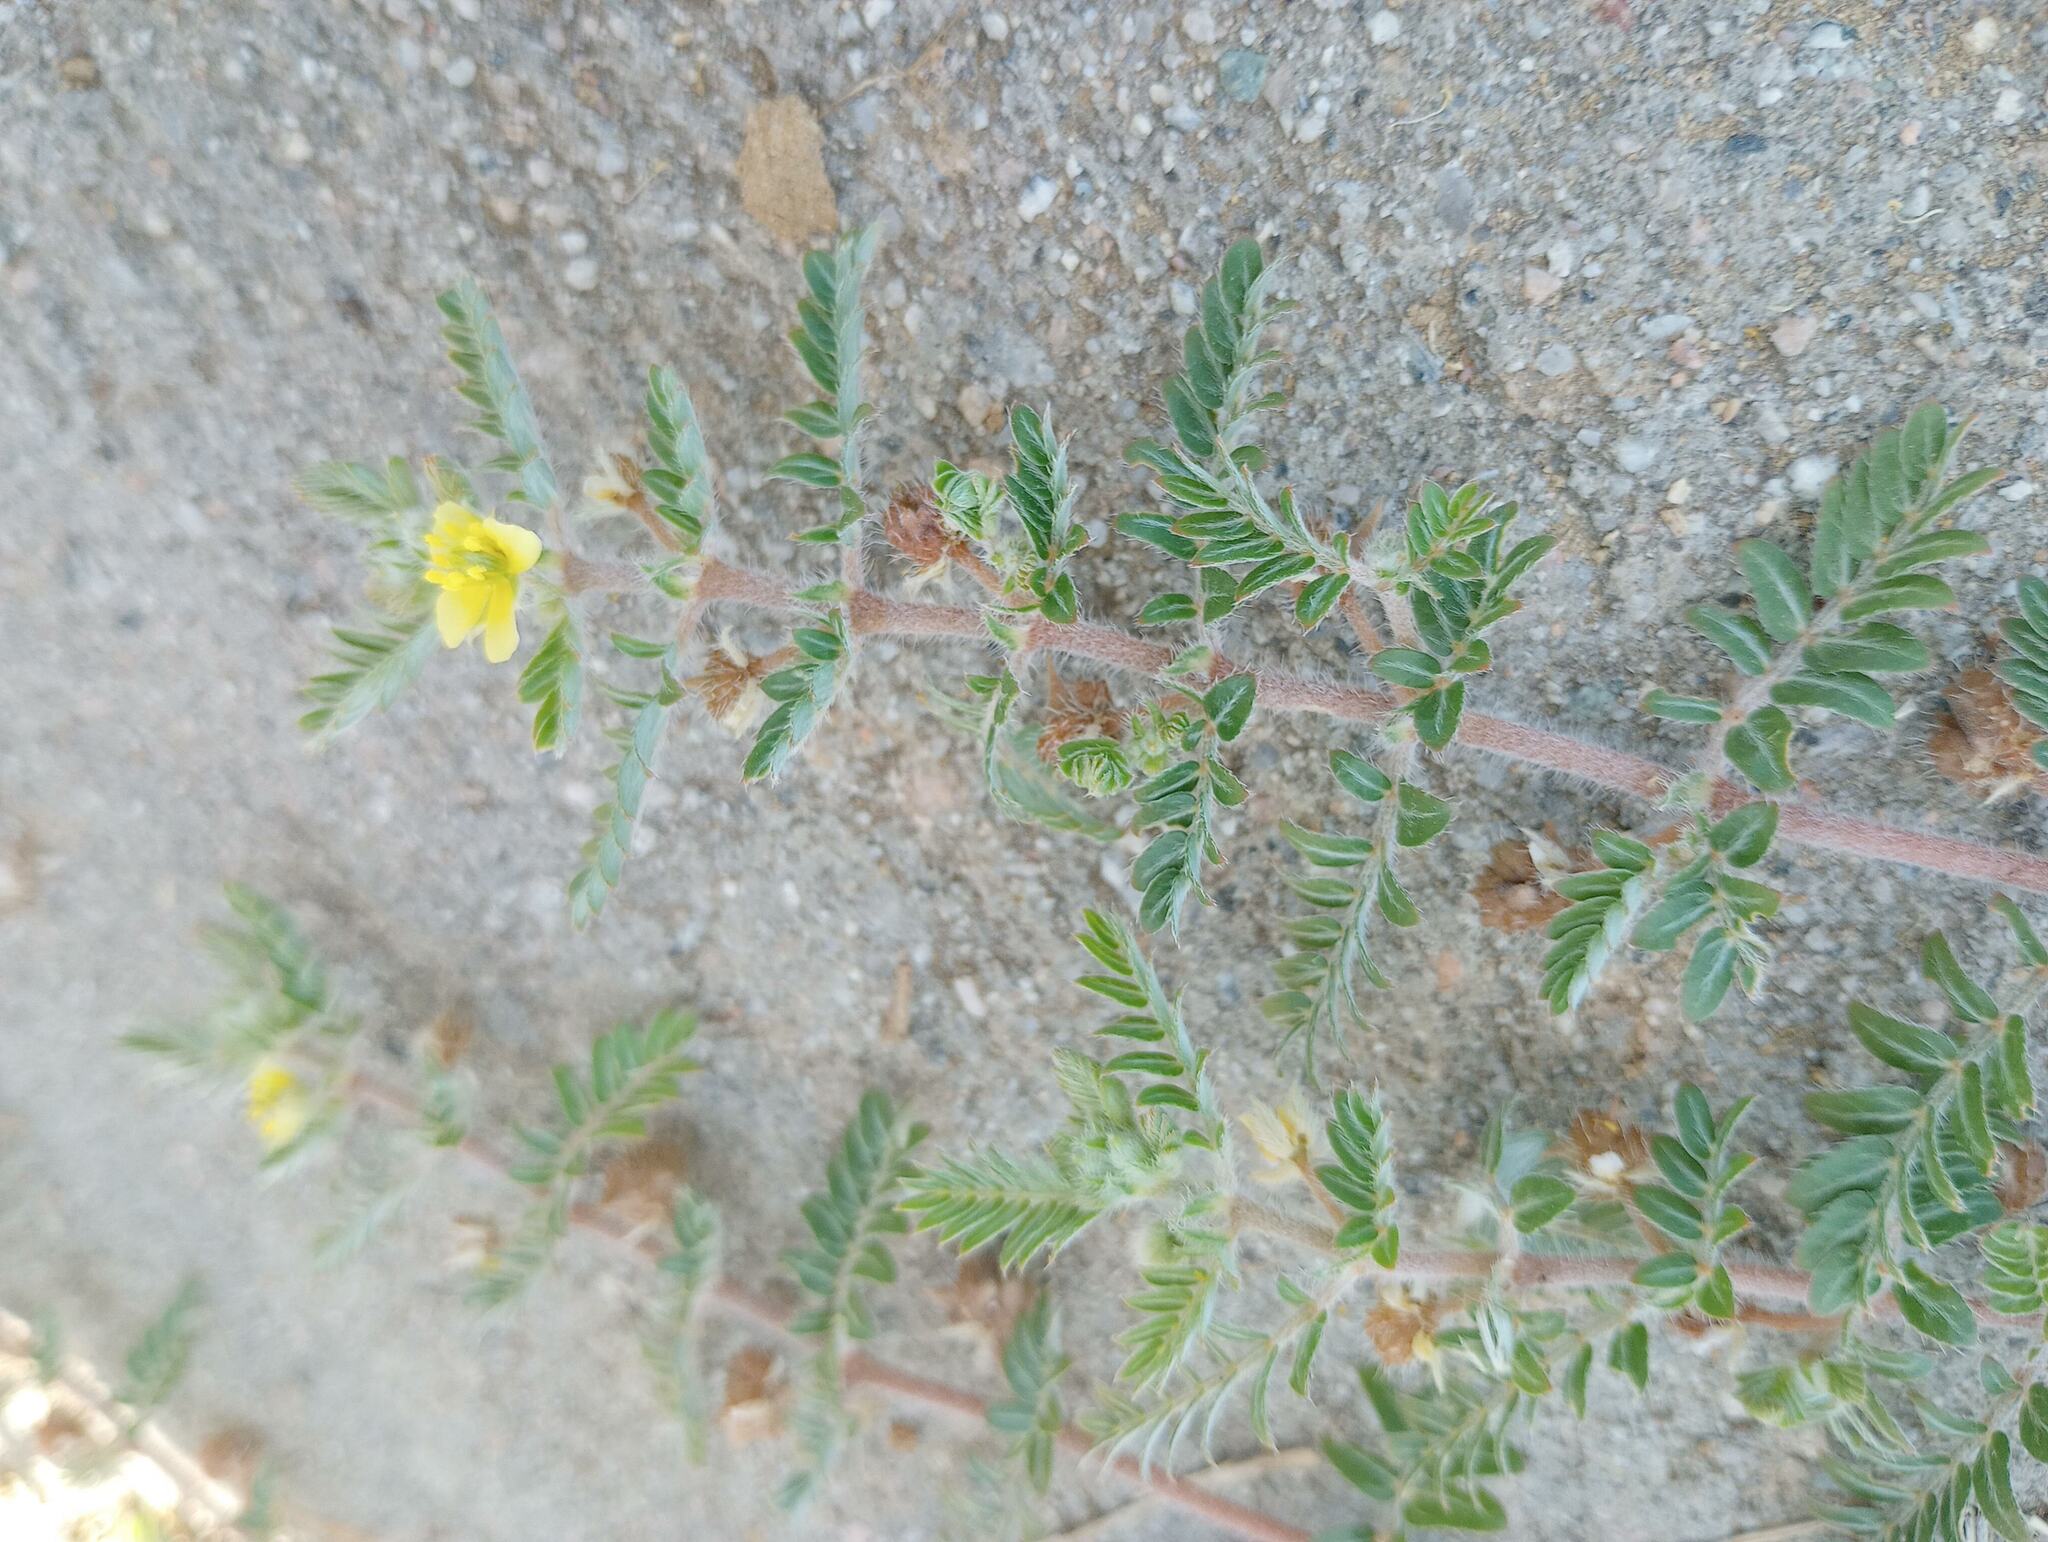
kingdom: Plantae
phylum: Tracheophyta
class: Magnoliopsida
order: Zygophyllales
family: Zygophyllaceae
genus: Tribulus
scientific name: Tribulus terrestris
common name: Puncturevine
